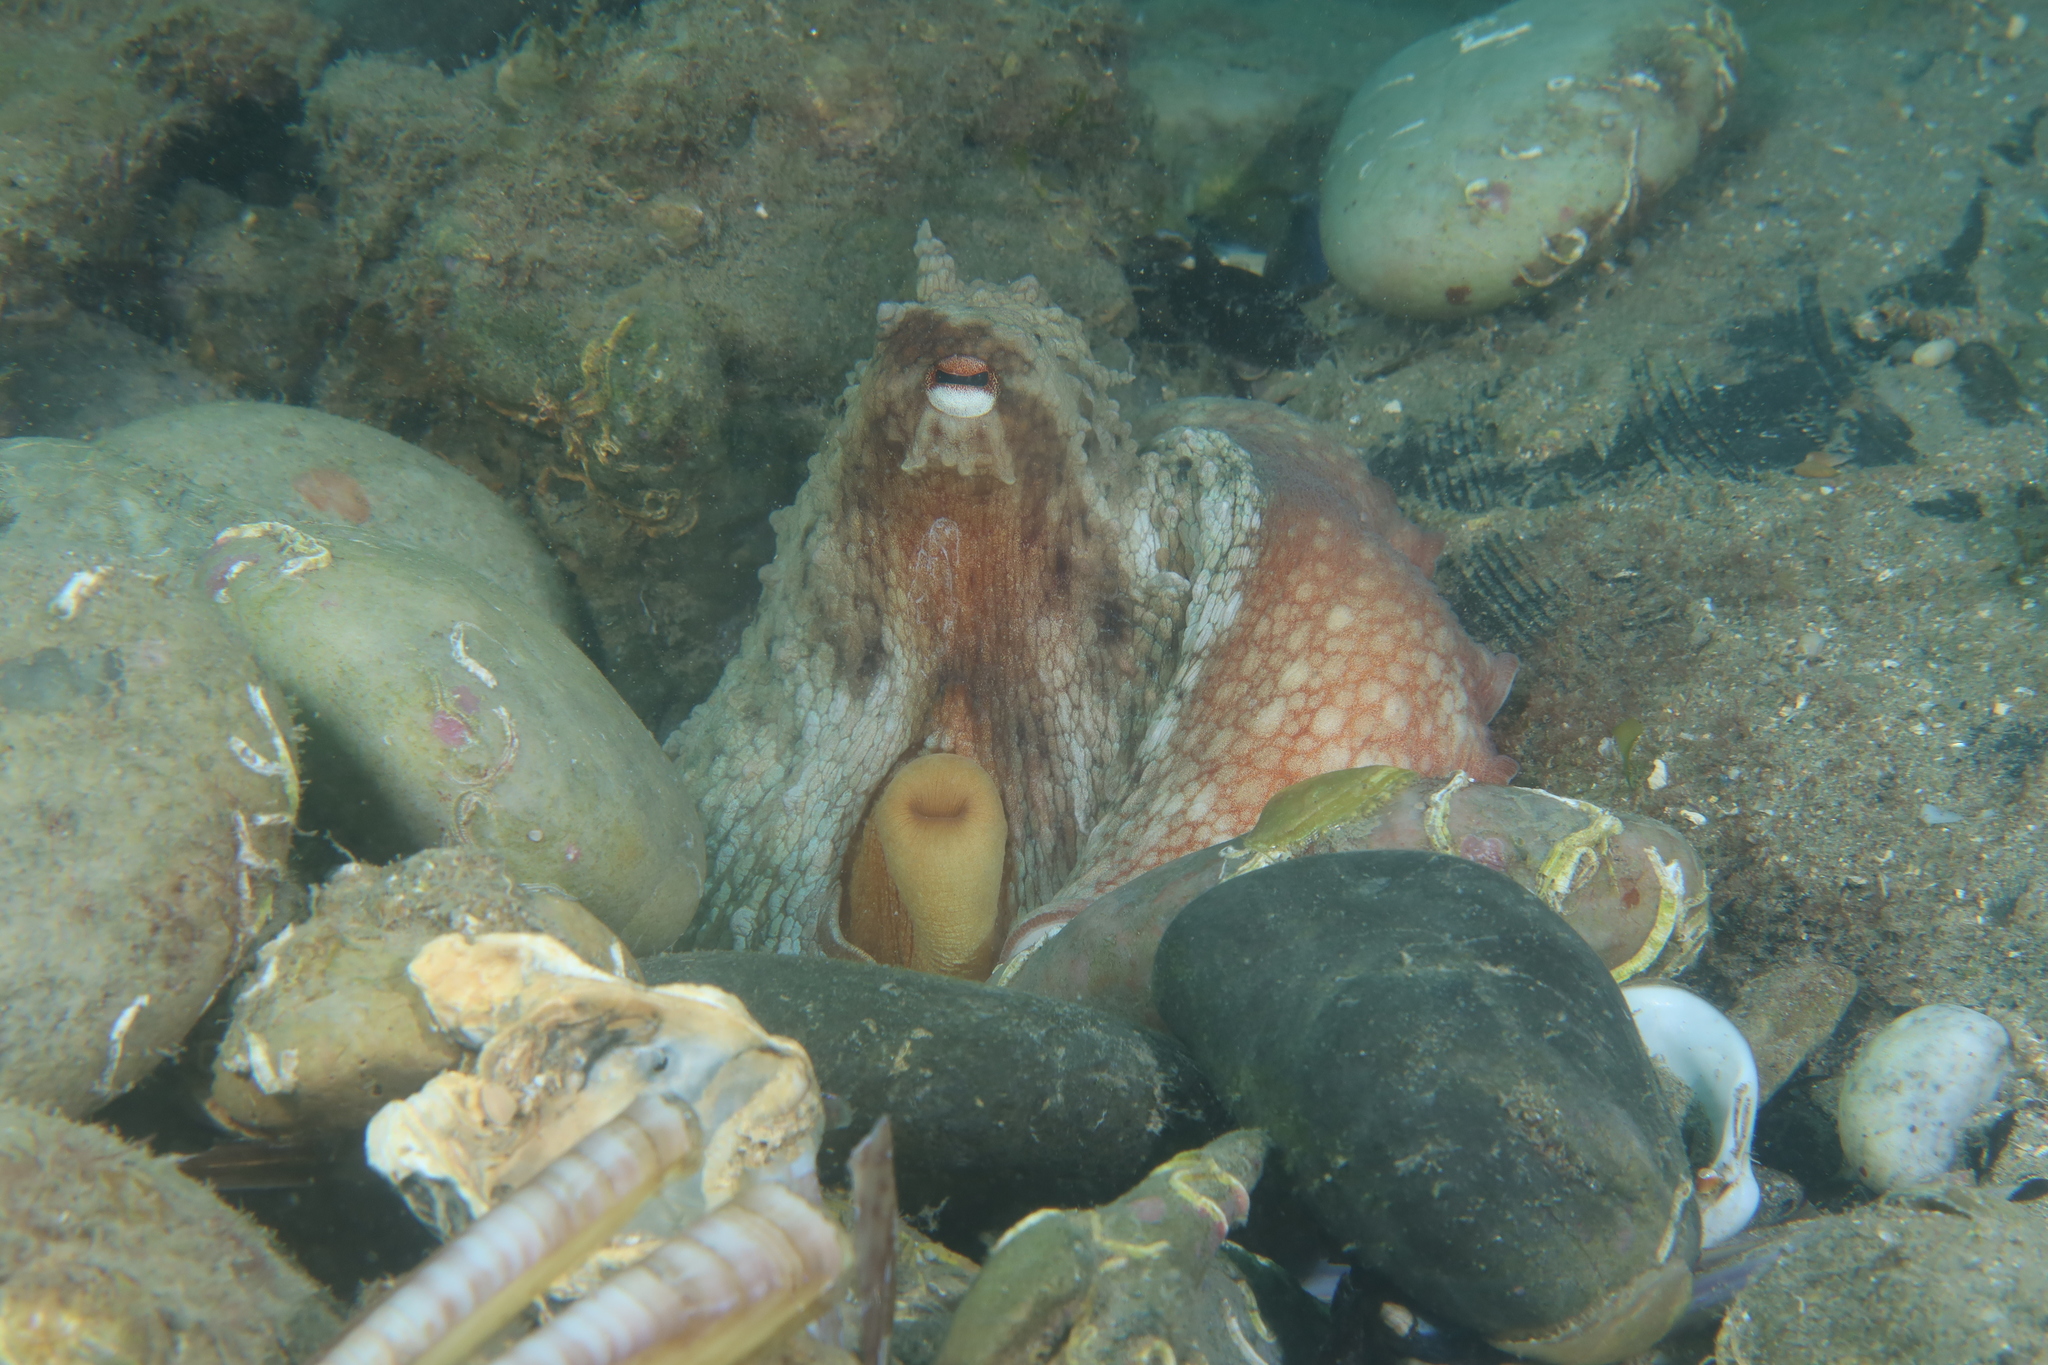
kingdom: Animalia
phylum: Mollusca
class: Cephalopoda
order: Octopoda
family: Octopodidae
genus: Octopus
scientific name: Octopus vulgaris
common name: Common octopus
